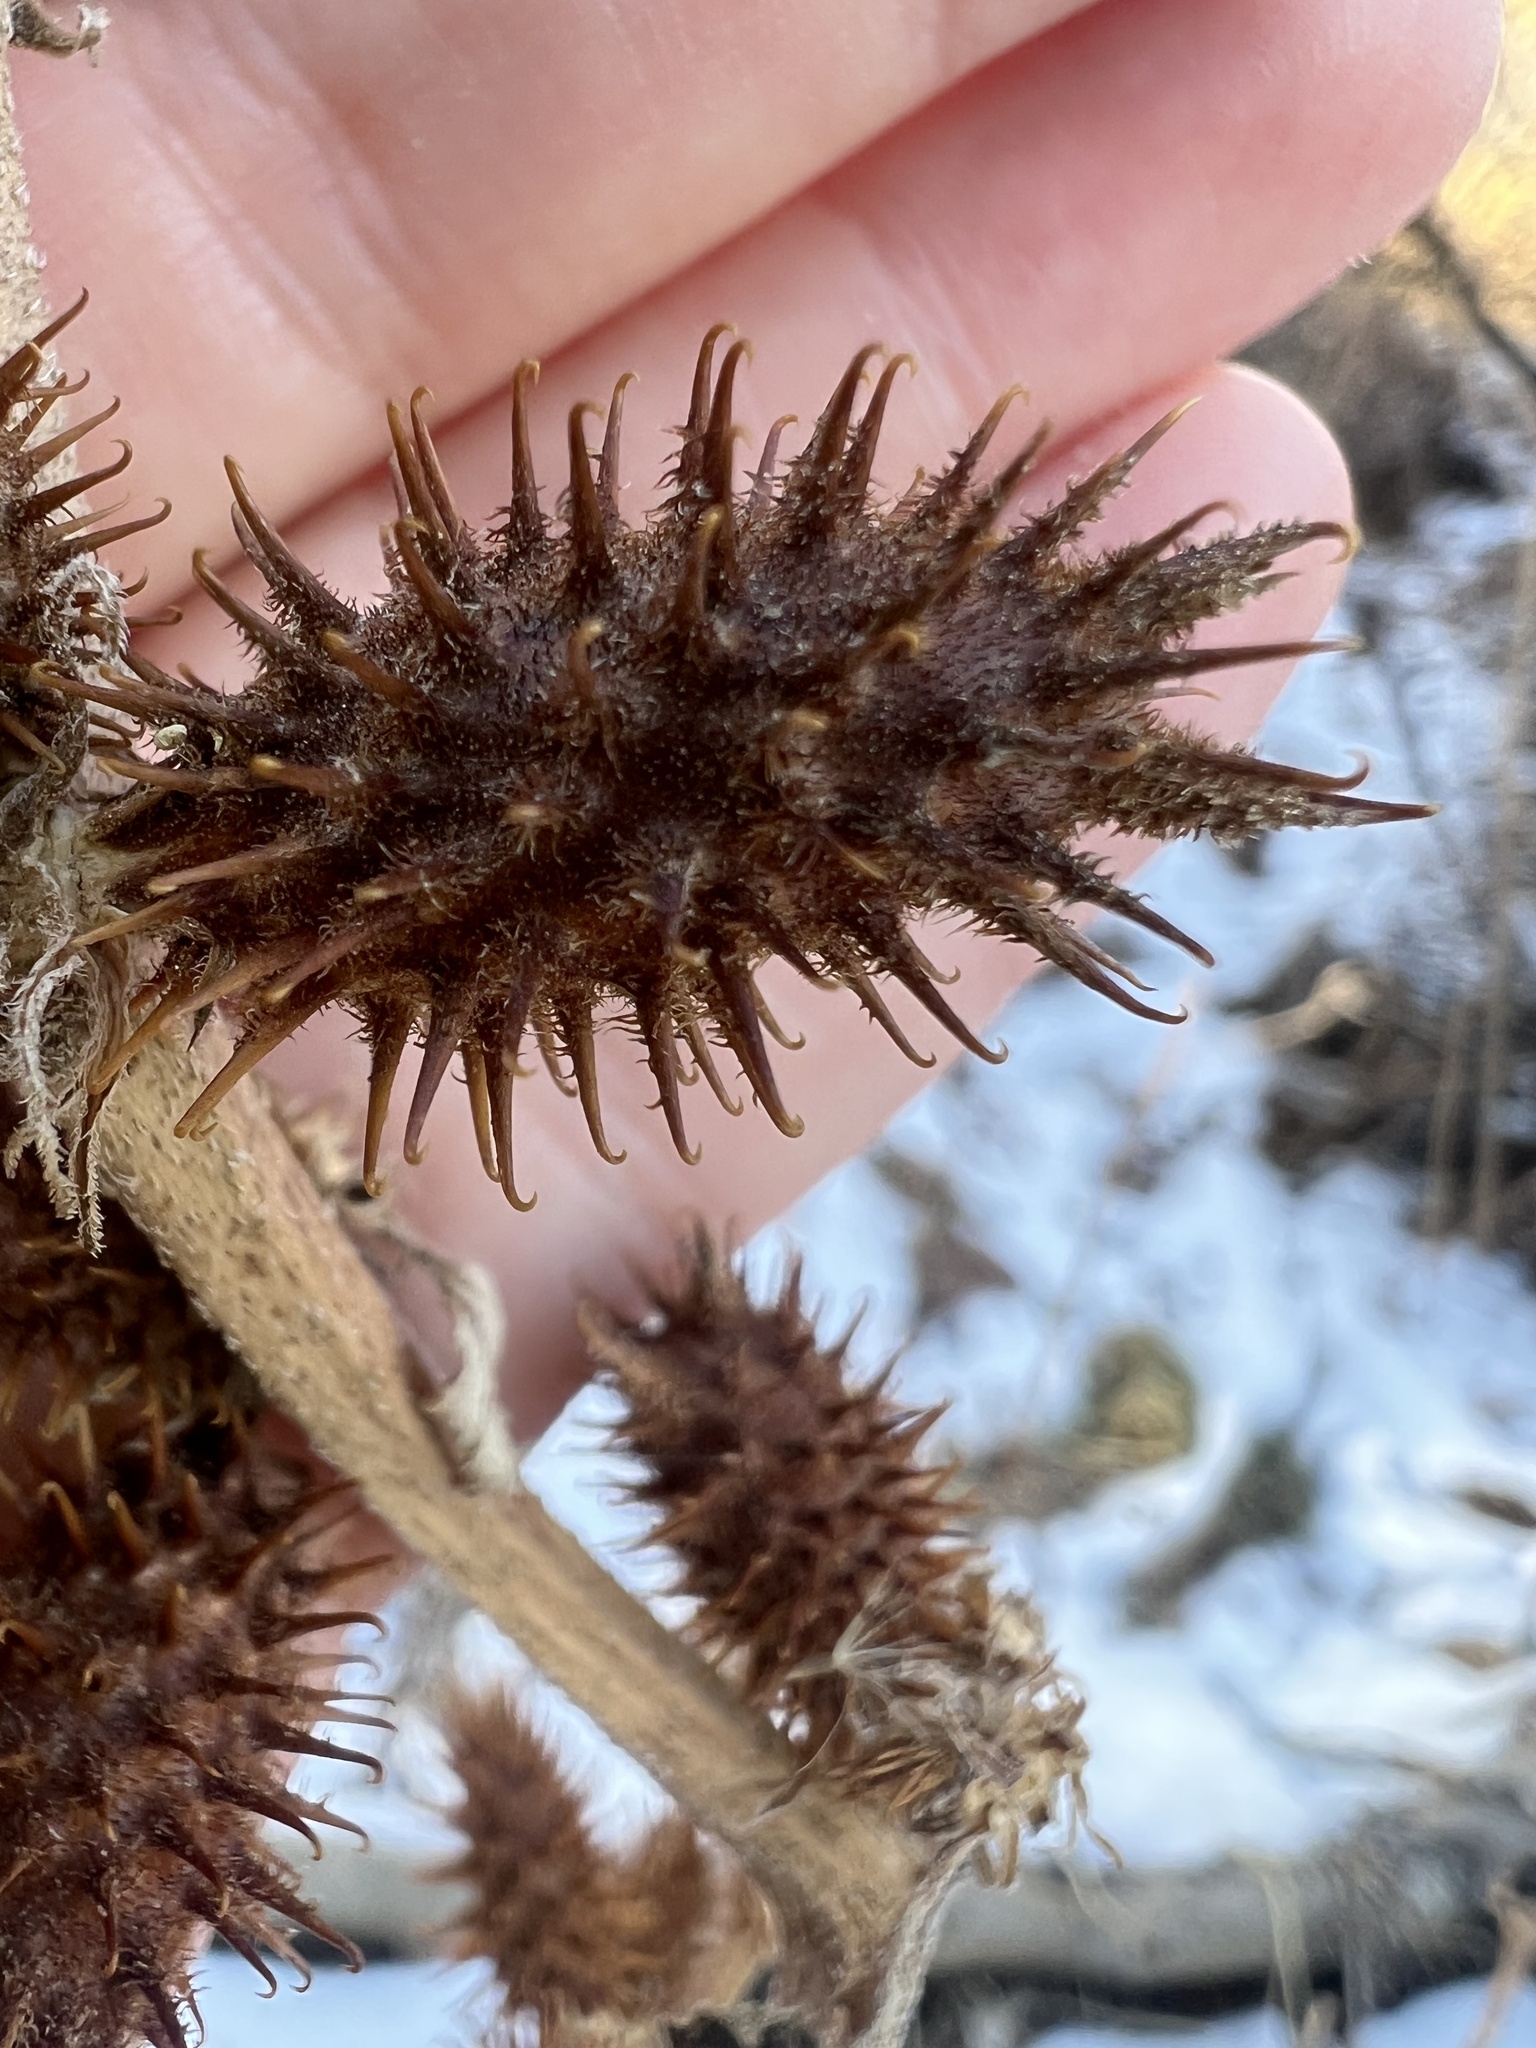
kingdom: Plantae
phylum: Tracheophyta
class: Magnoliopsida
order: Asterales
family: Asteraceae
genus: Xanthium
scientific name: Xanthium strumarium
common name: Rough cocklebur
